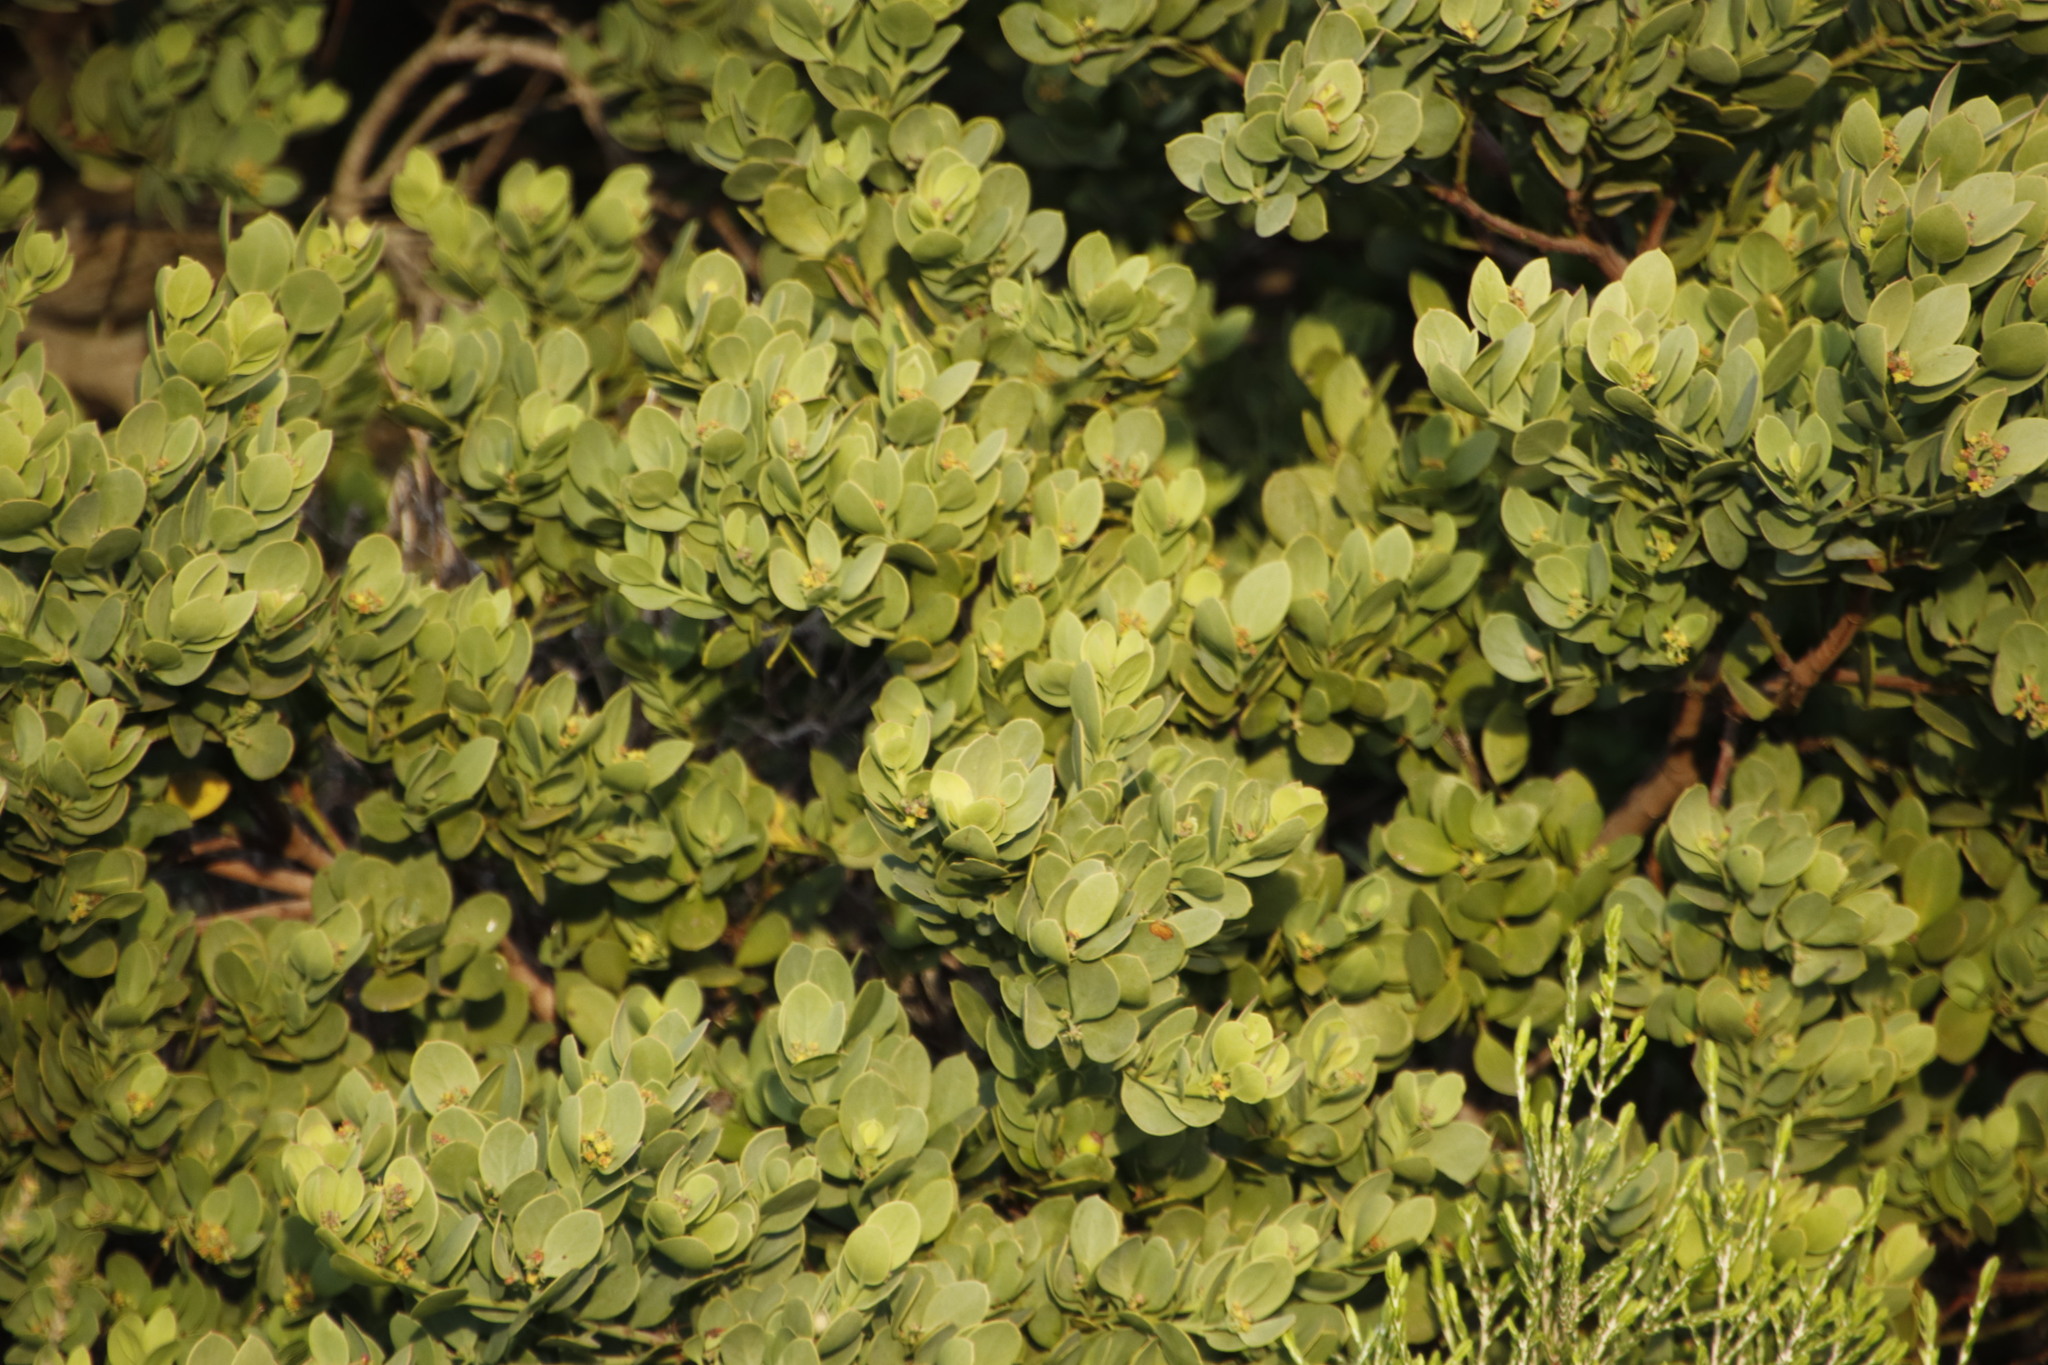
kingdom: Plantae
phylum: Tracheophyta
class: Magnoliopsida
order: Santalales
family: Santalaceae
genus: Osyris
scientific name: Osyris compressa
